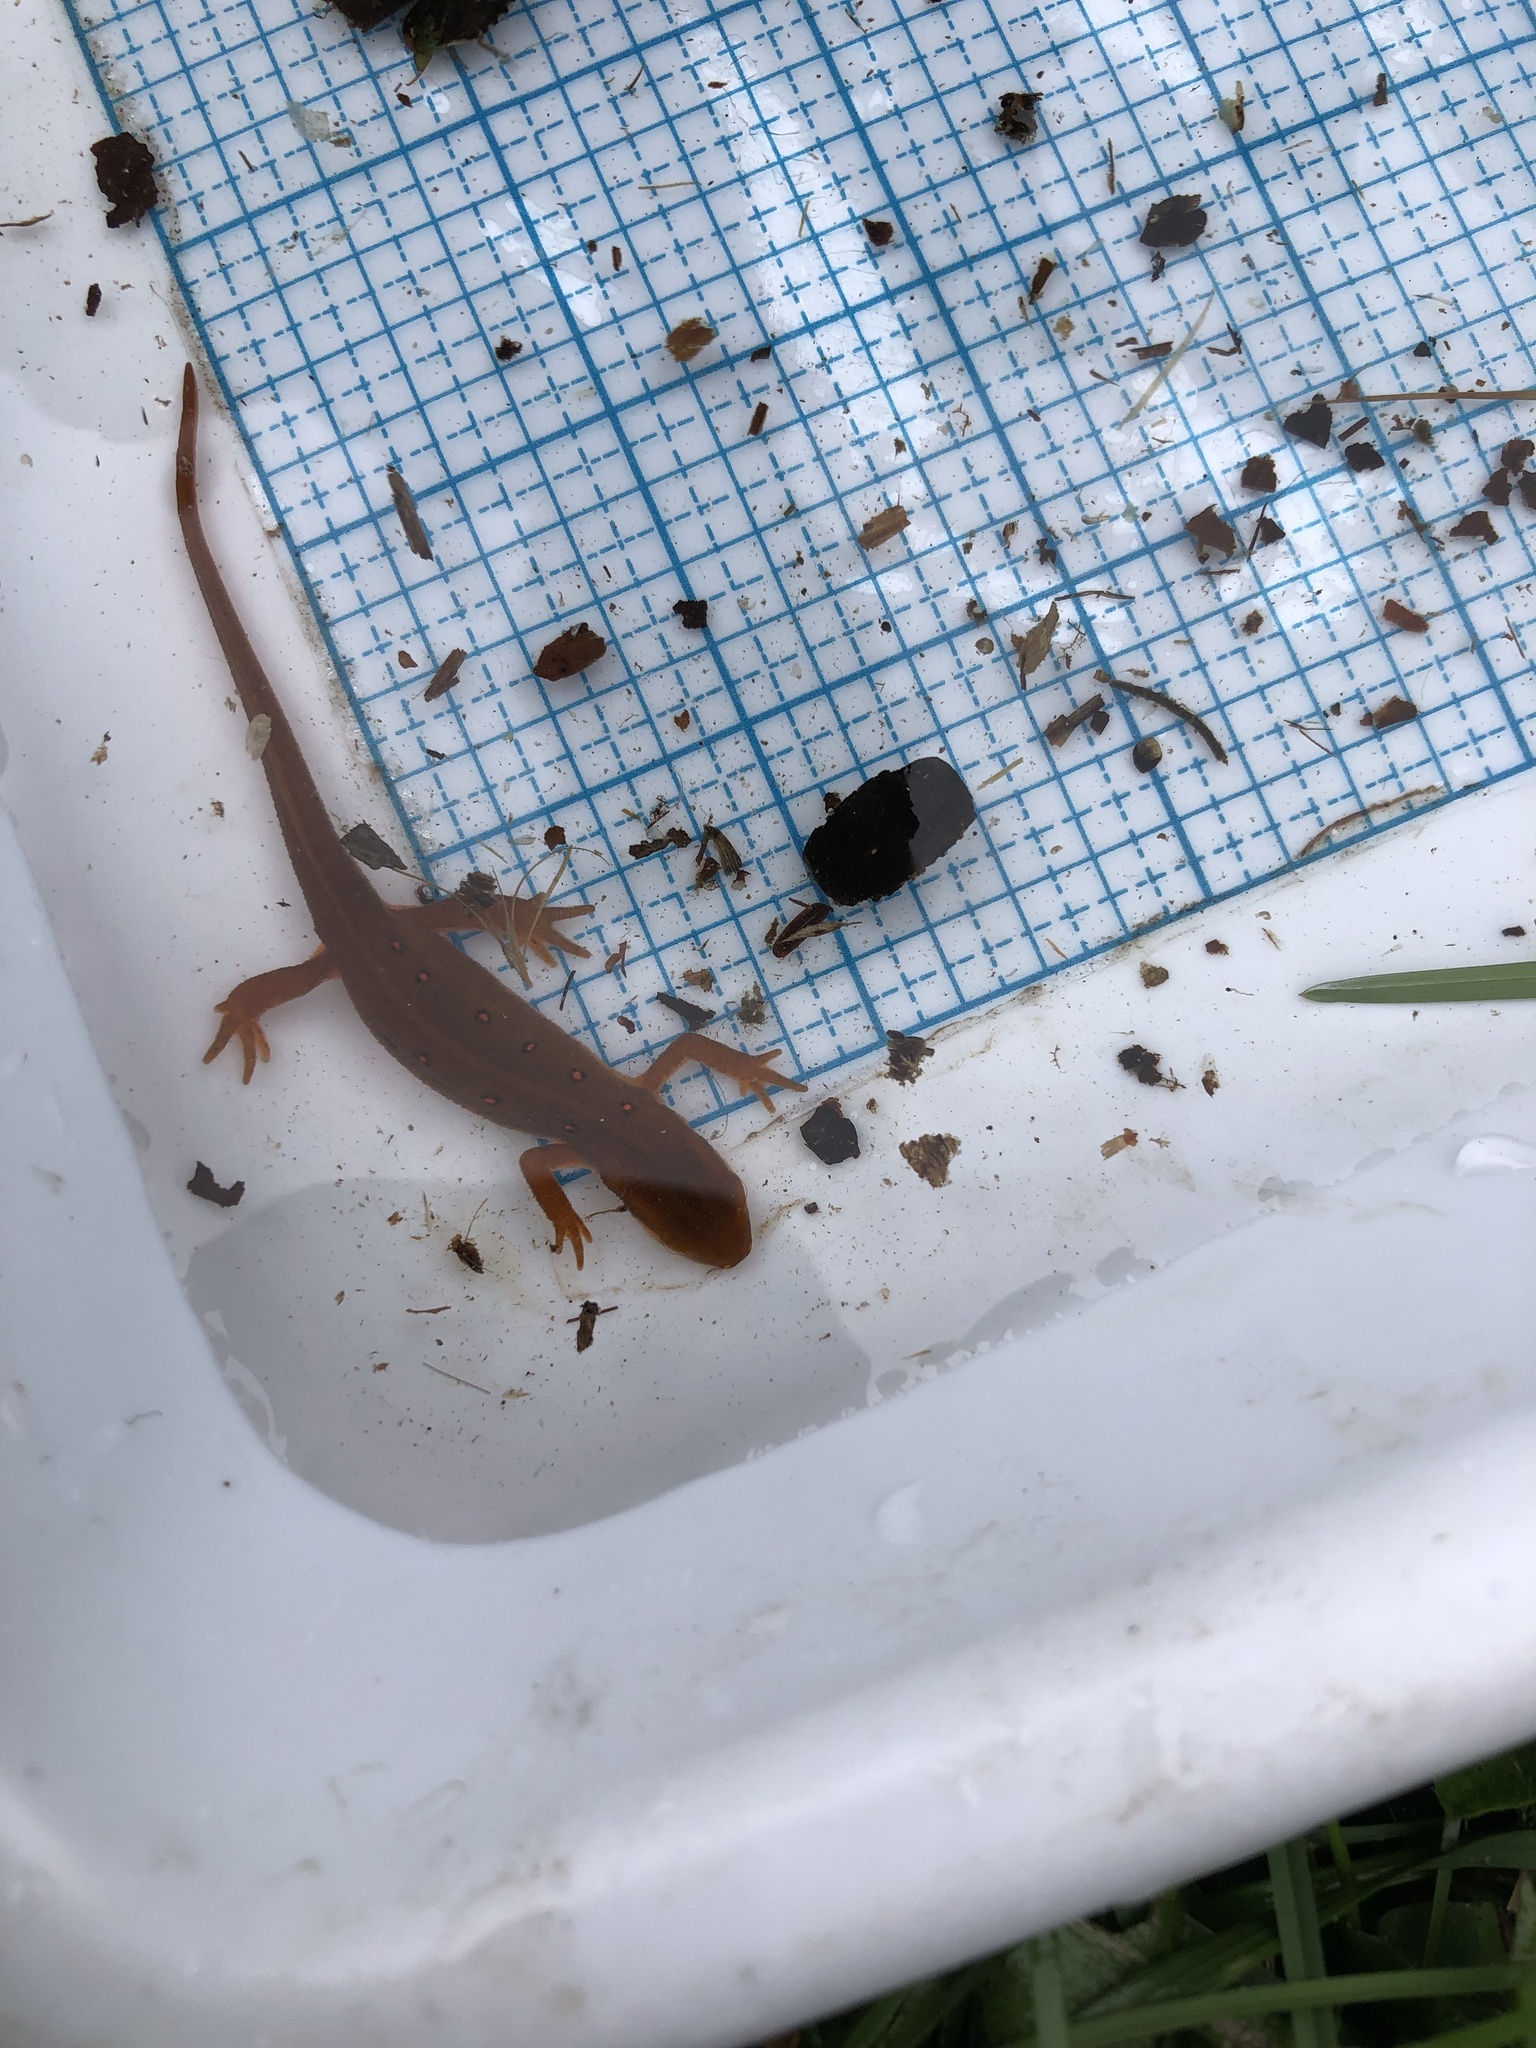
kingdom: Animalia
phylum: Chordata
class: Amphibia
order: Caudata
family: Salamandridae
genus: Notophthalmus
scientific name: Notophthalmus viridescens
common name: Eastern newt
